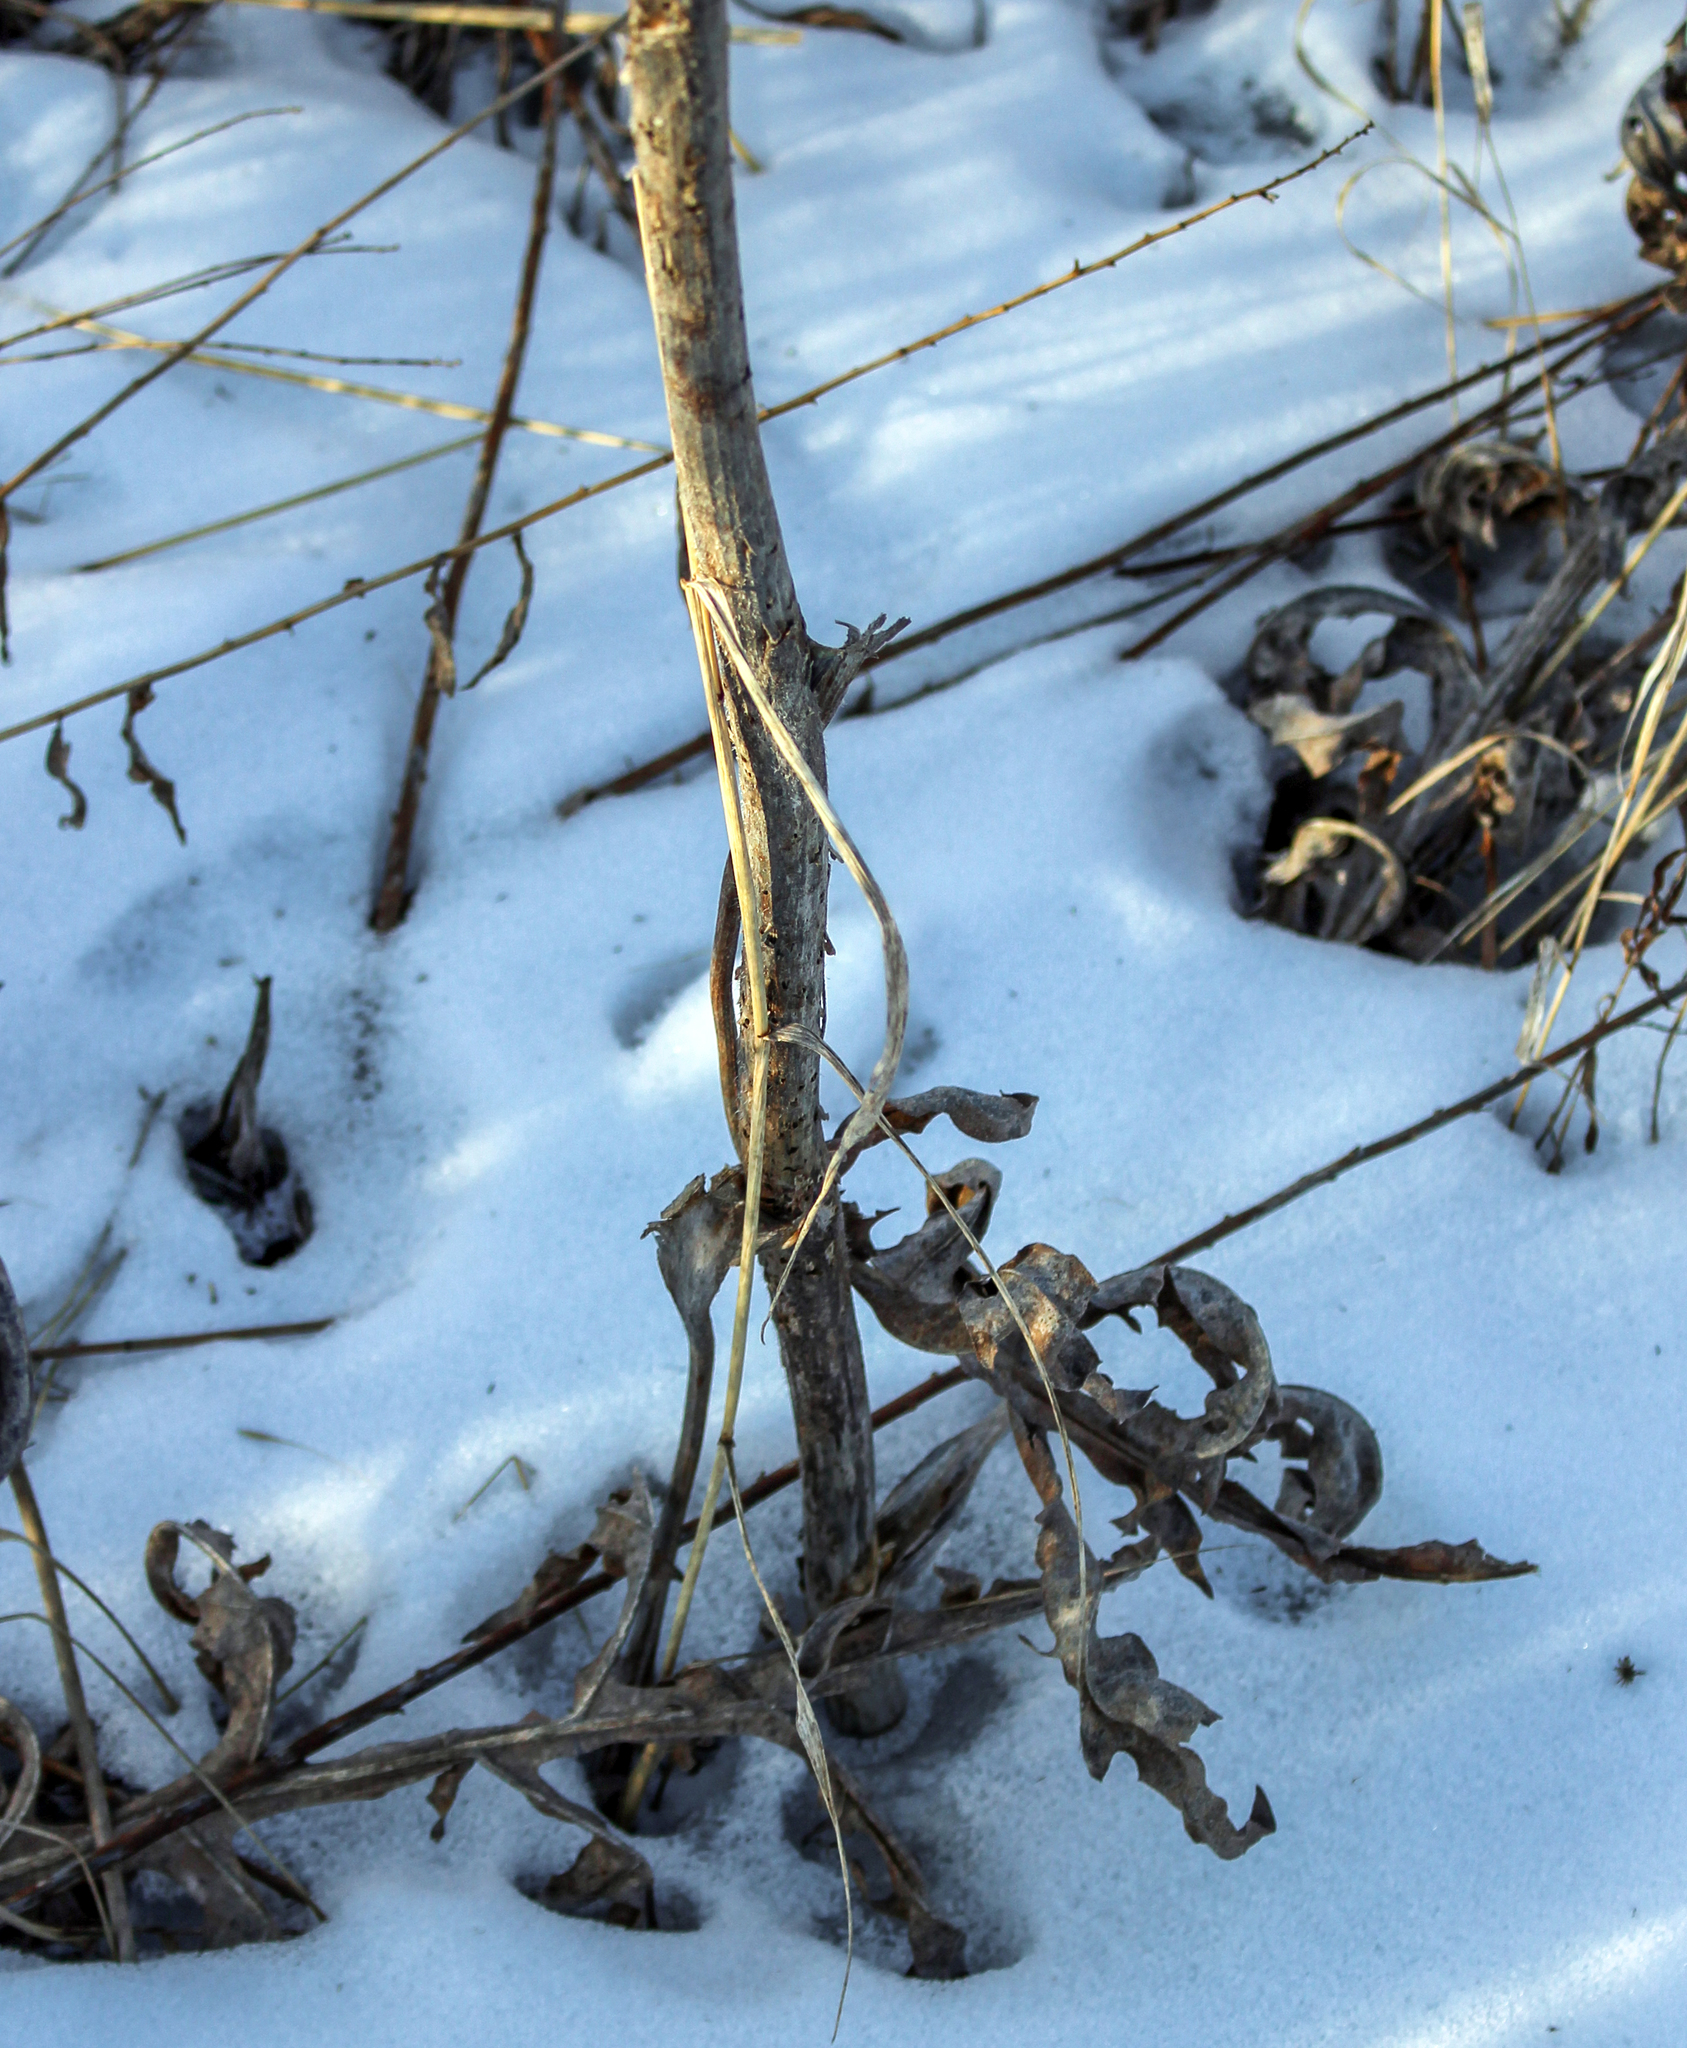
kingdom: Plantae
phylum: Tracheophyta
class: Magnoliopsida
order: Asterales
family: Asteraceae
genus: Silphium
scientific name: Silphium laciniatum
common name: Polarplant
